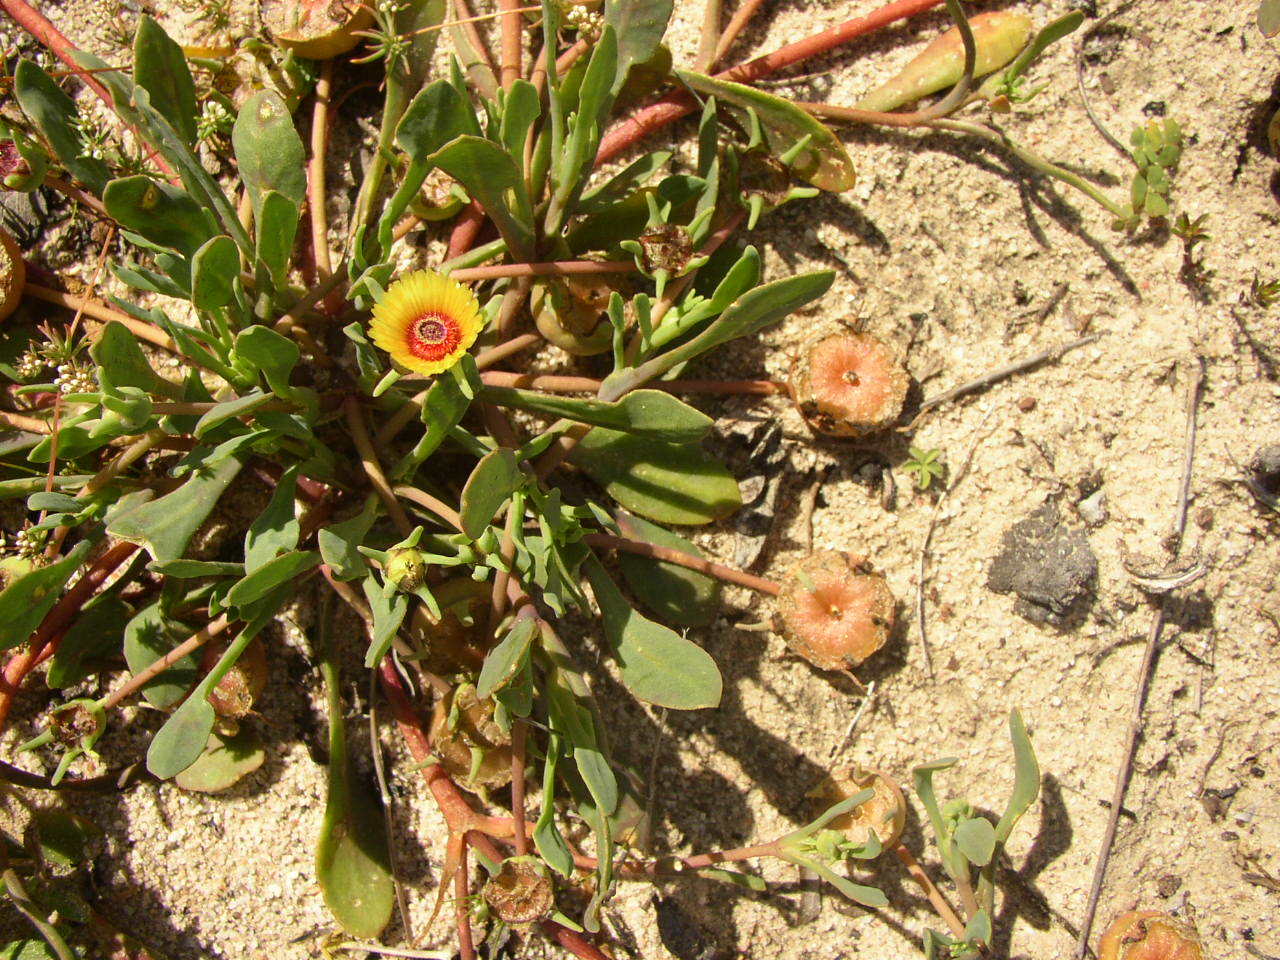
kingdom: Plantae
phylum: Tracheophyta
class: Magnoliopsida
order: Caryophyllales
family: Aizoaceae
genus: Hymenogyne
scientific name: Hymenogyne glabra
